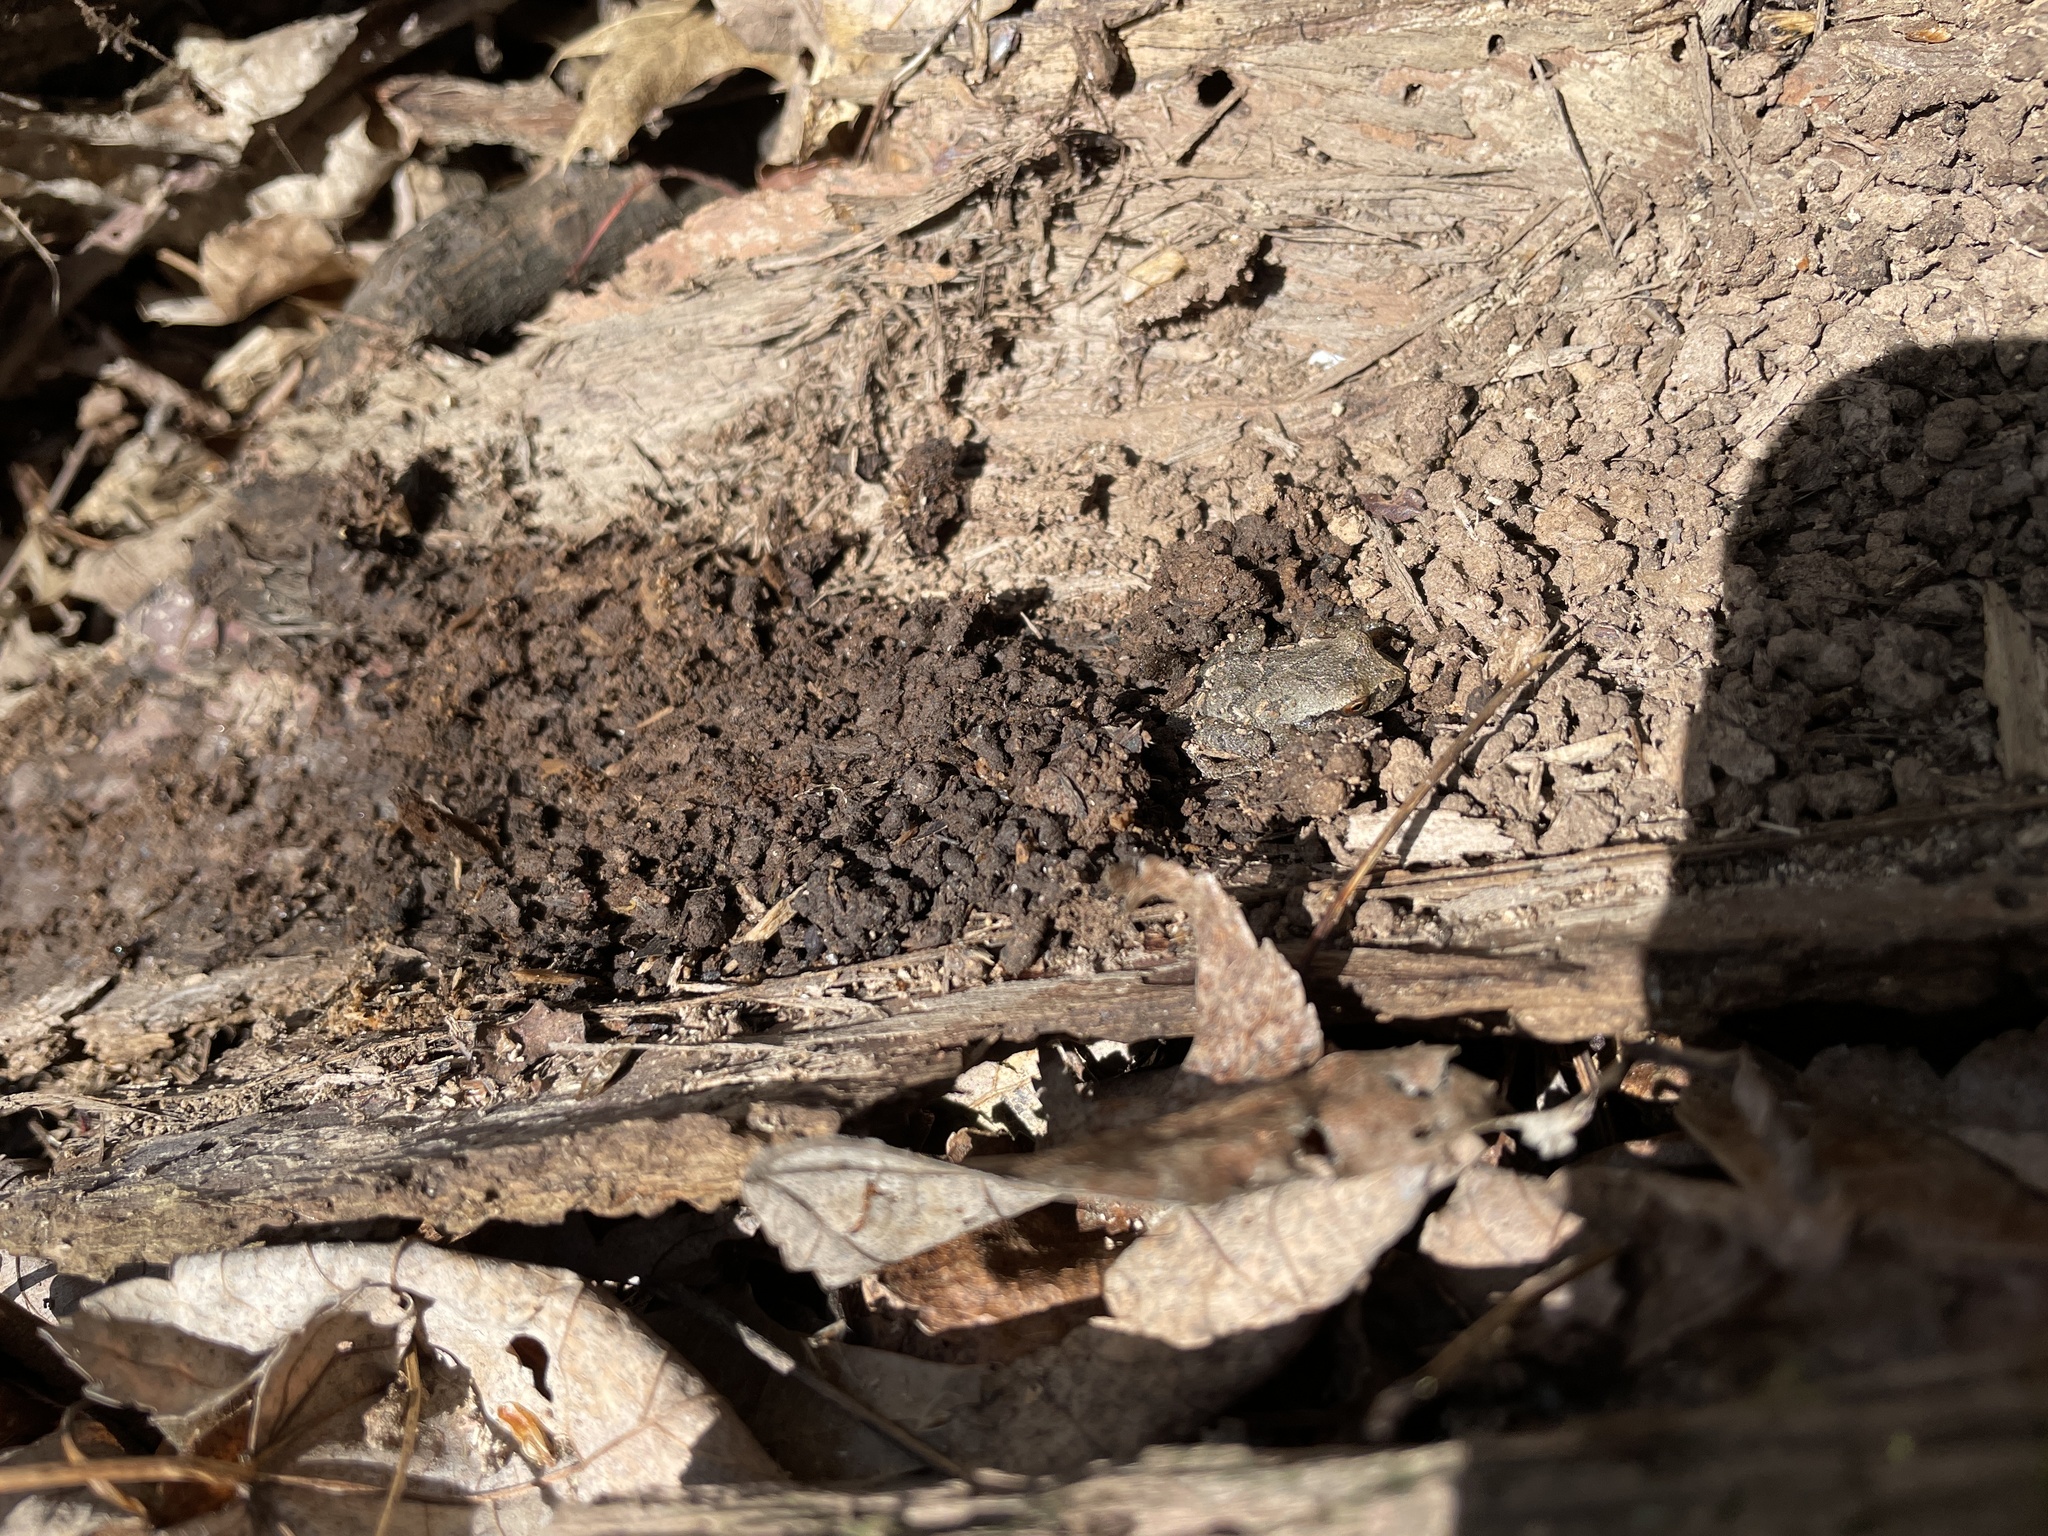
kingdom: Animalia
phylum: Chordata
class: Amphibia
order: Anura
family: Hylidae
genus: Pseudacris
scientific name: Pseudacris crucifer
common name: Spring peeper
